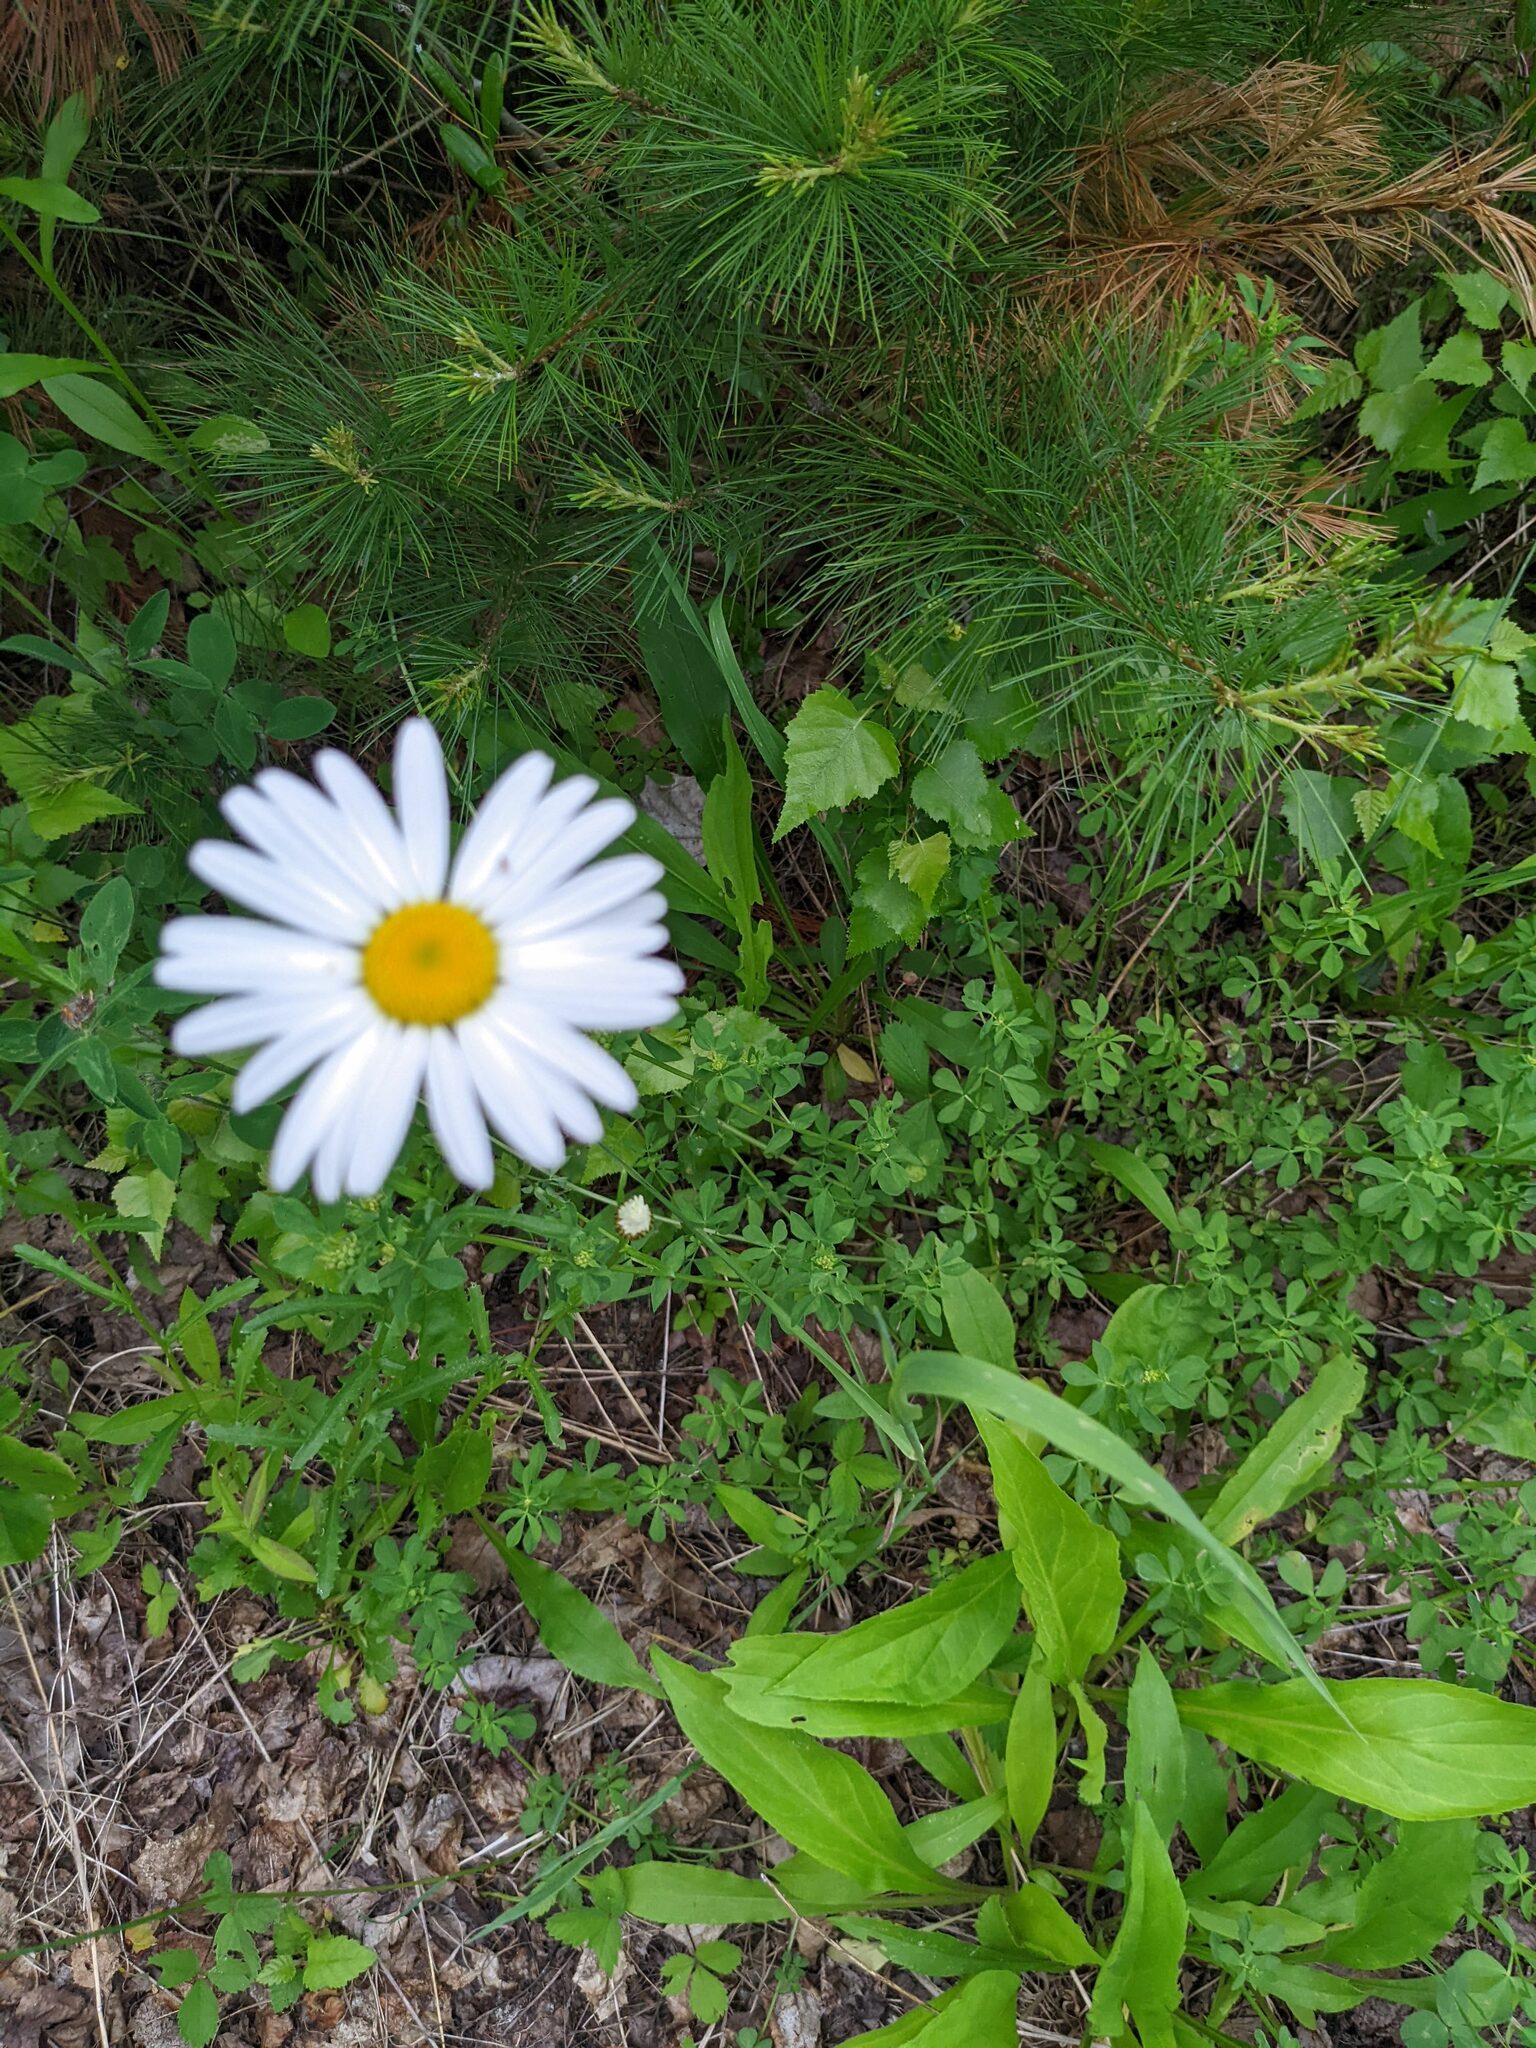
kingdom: Plantae
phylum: Tracheophyta
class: Magnoliopsida
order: Asterales
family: Asteraceae
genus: Leucanthemum
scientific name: Leucanthemum vulgare
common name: Oxeye daisy
